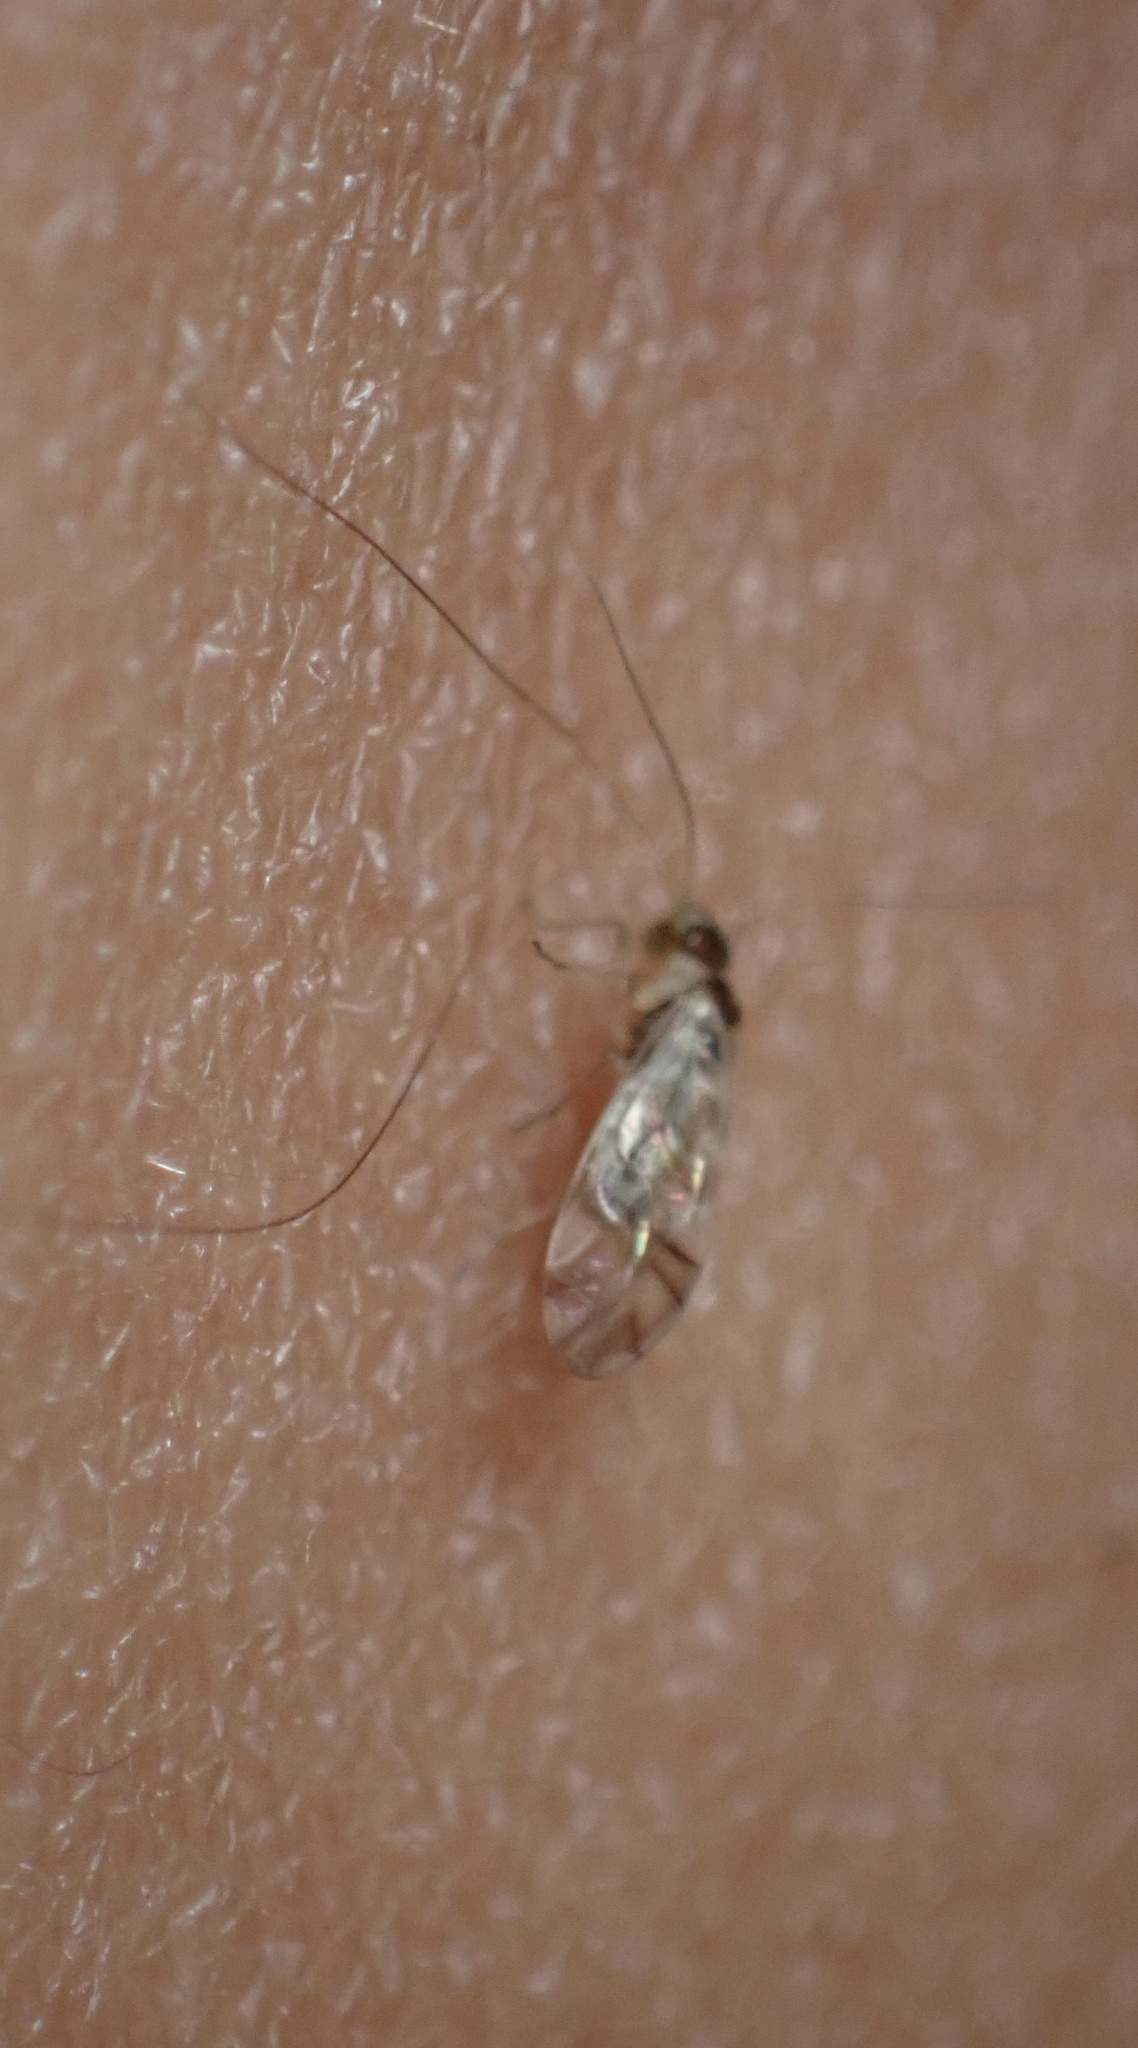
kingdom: Animalia
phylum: Arthropoda
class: Insecta
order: Psocodea
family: Stenopsocidae
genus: Graphopsocus
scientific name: Graphopsocus cruciatus
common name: Lizard bark louse
